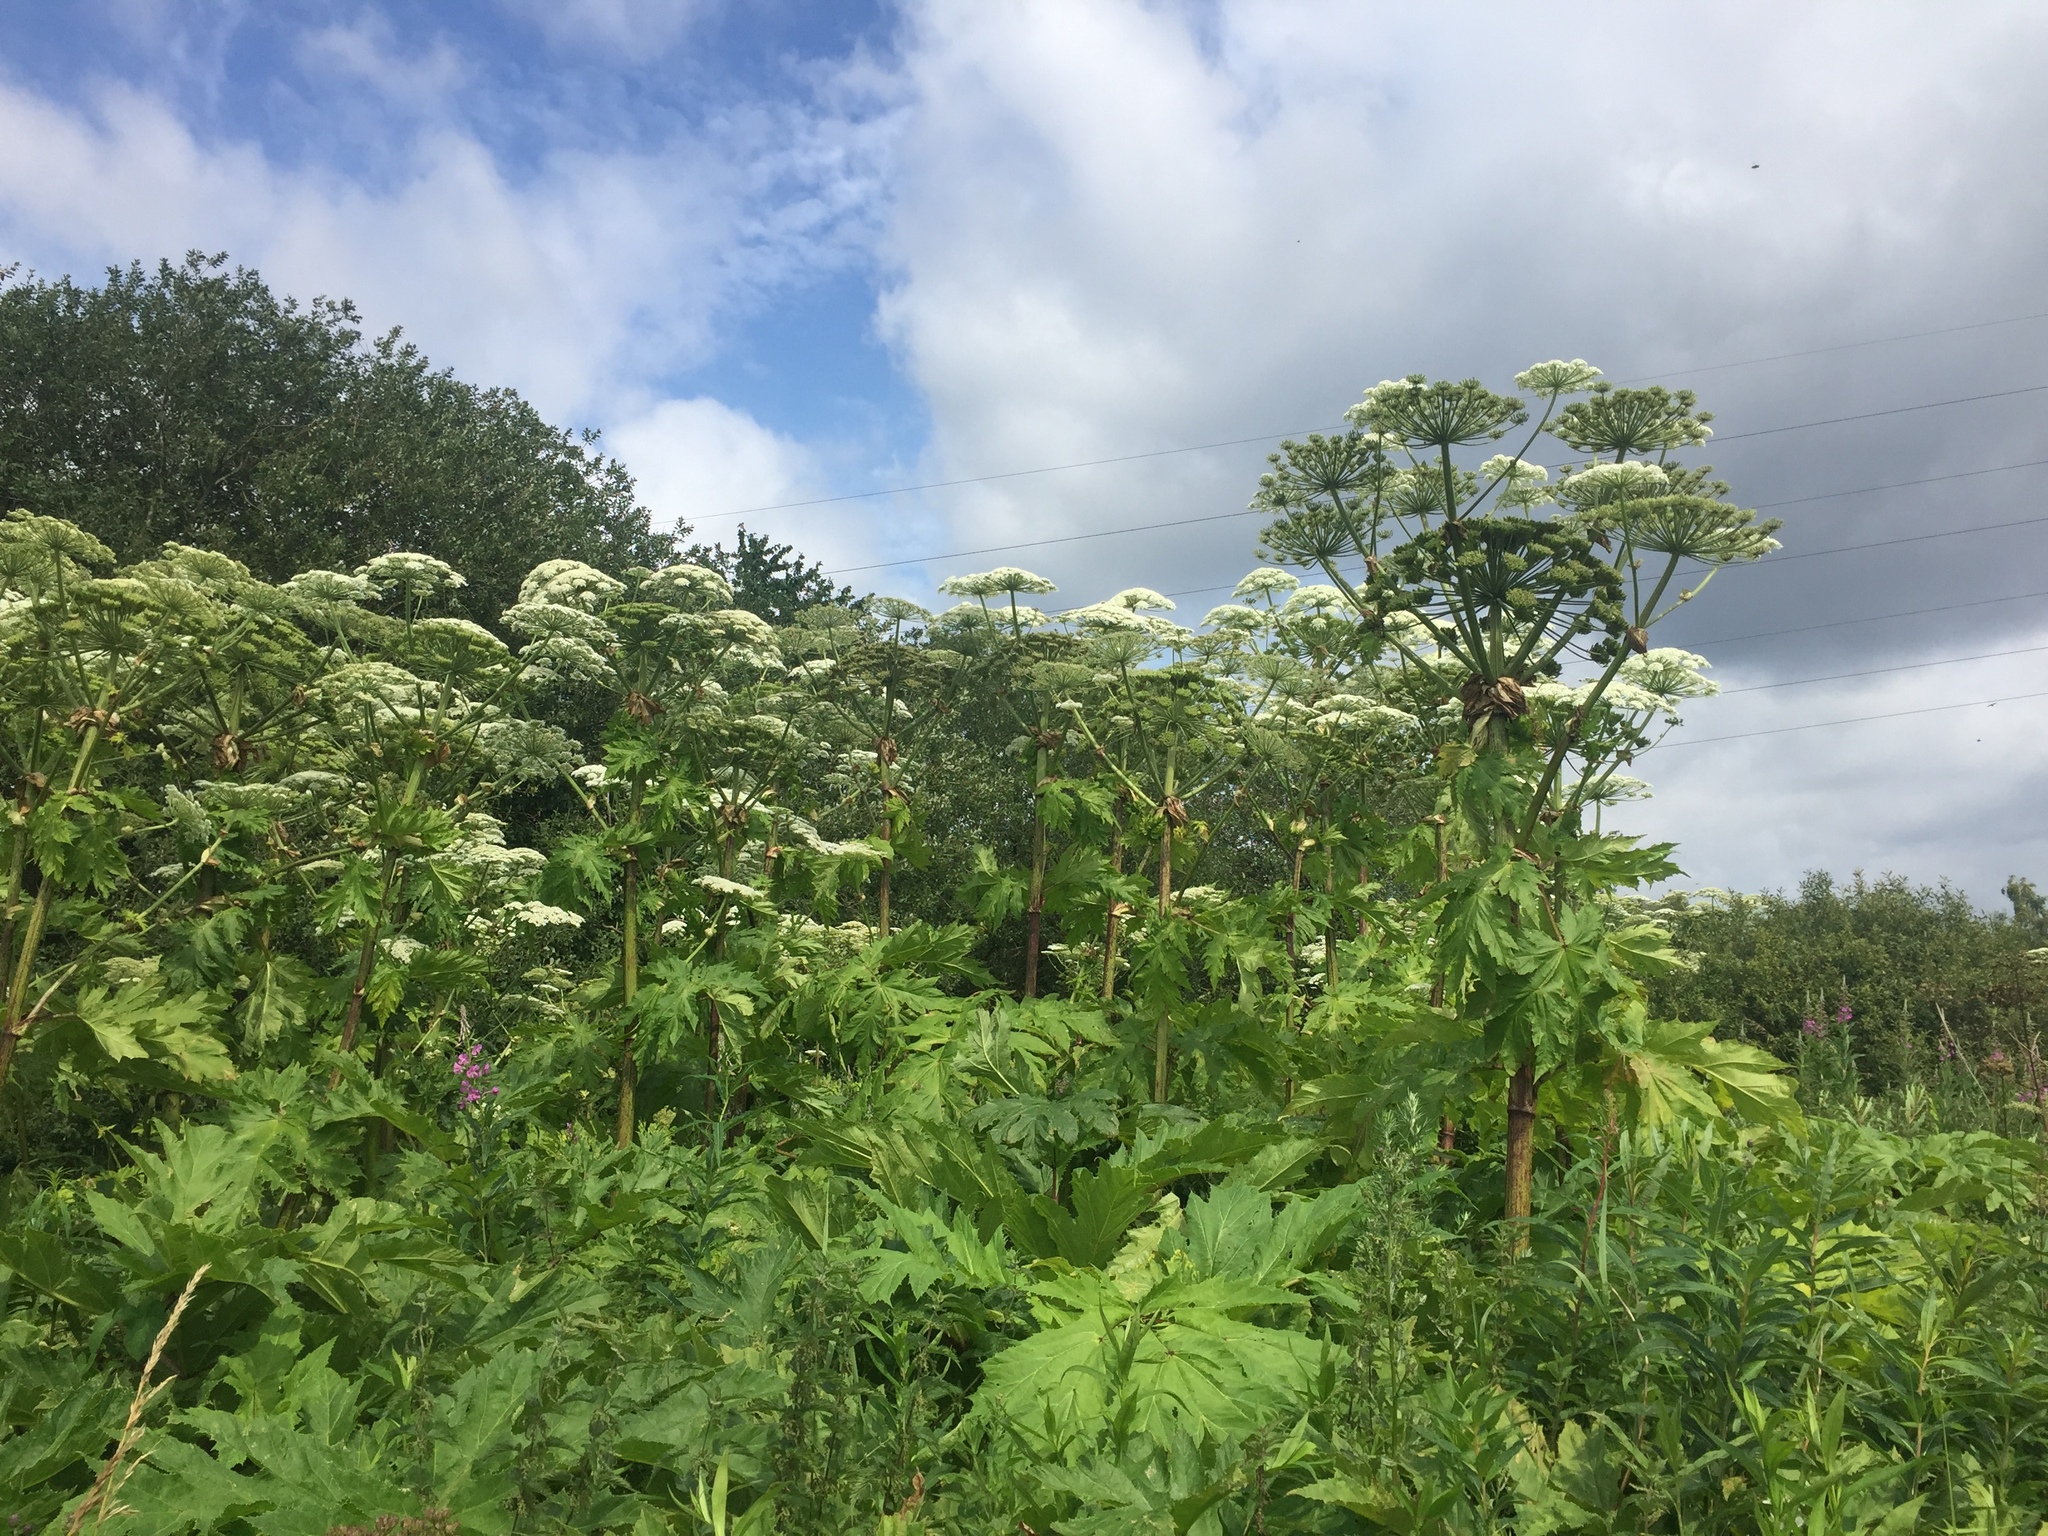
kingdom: Plantae
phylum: Tracheophyta
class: Magnoliopsida
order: Apiales
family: Apiaceae
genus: Heracleum
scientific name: Heracleum mantegazzianum
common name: Giant hogweed
